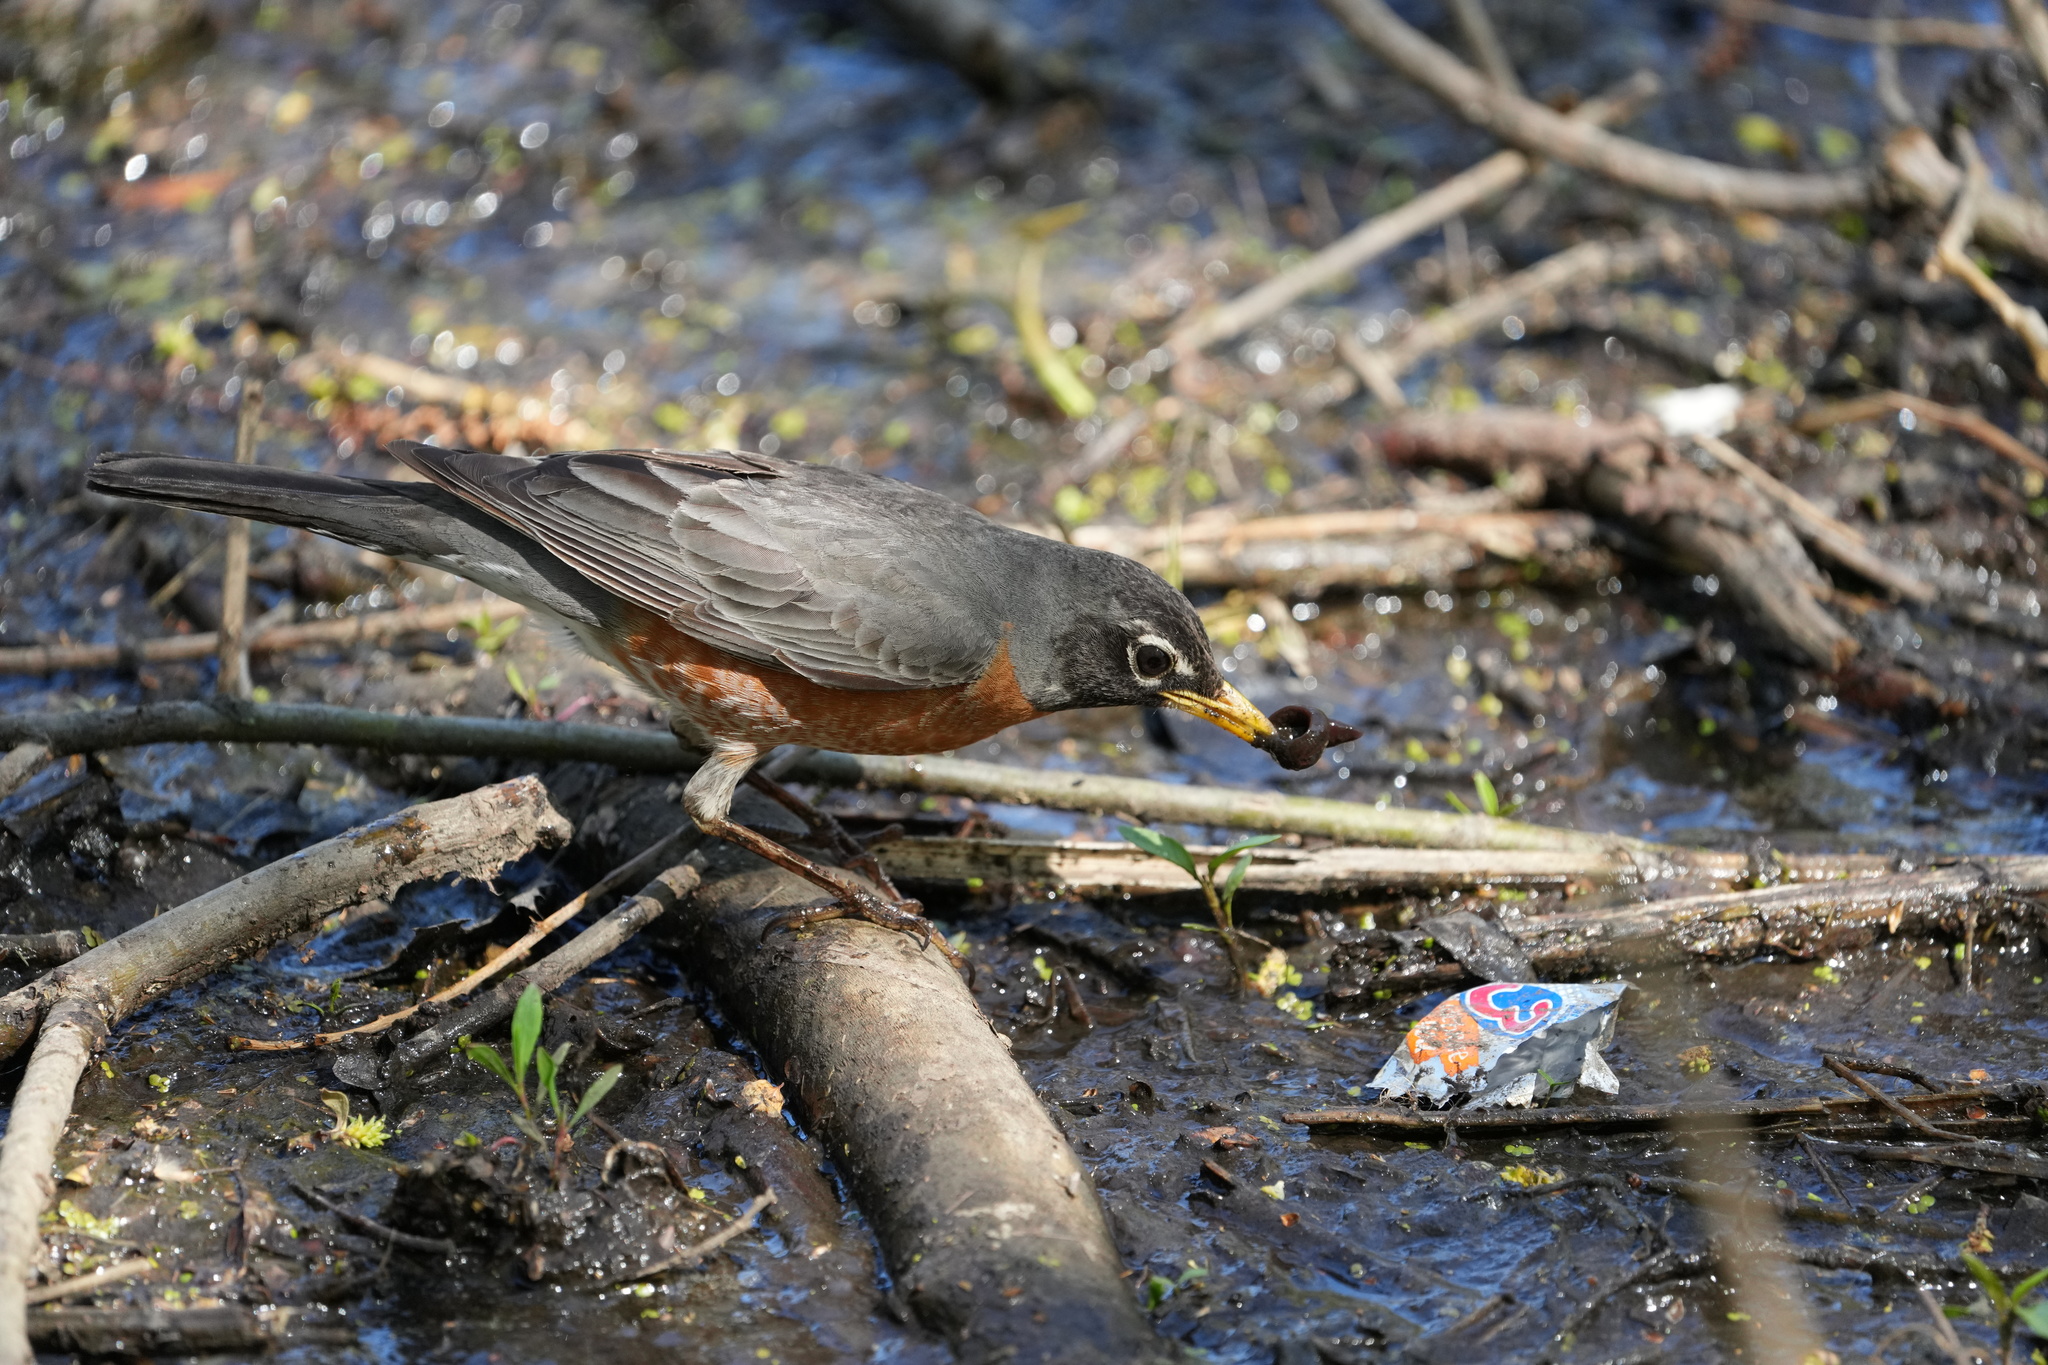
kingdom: Animalia
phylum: Chordata
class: Aves
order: Passeriformes
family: Turdidae
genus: Turdus
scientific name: Turdus migratorius
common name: American robin
